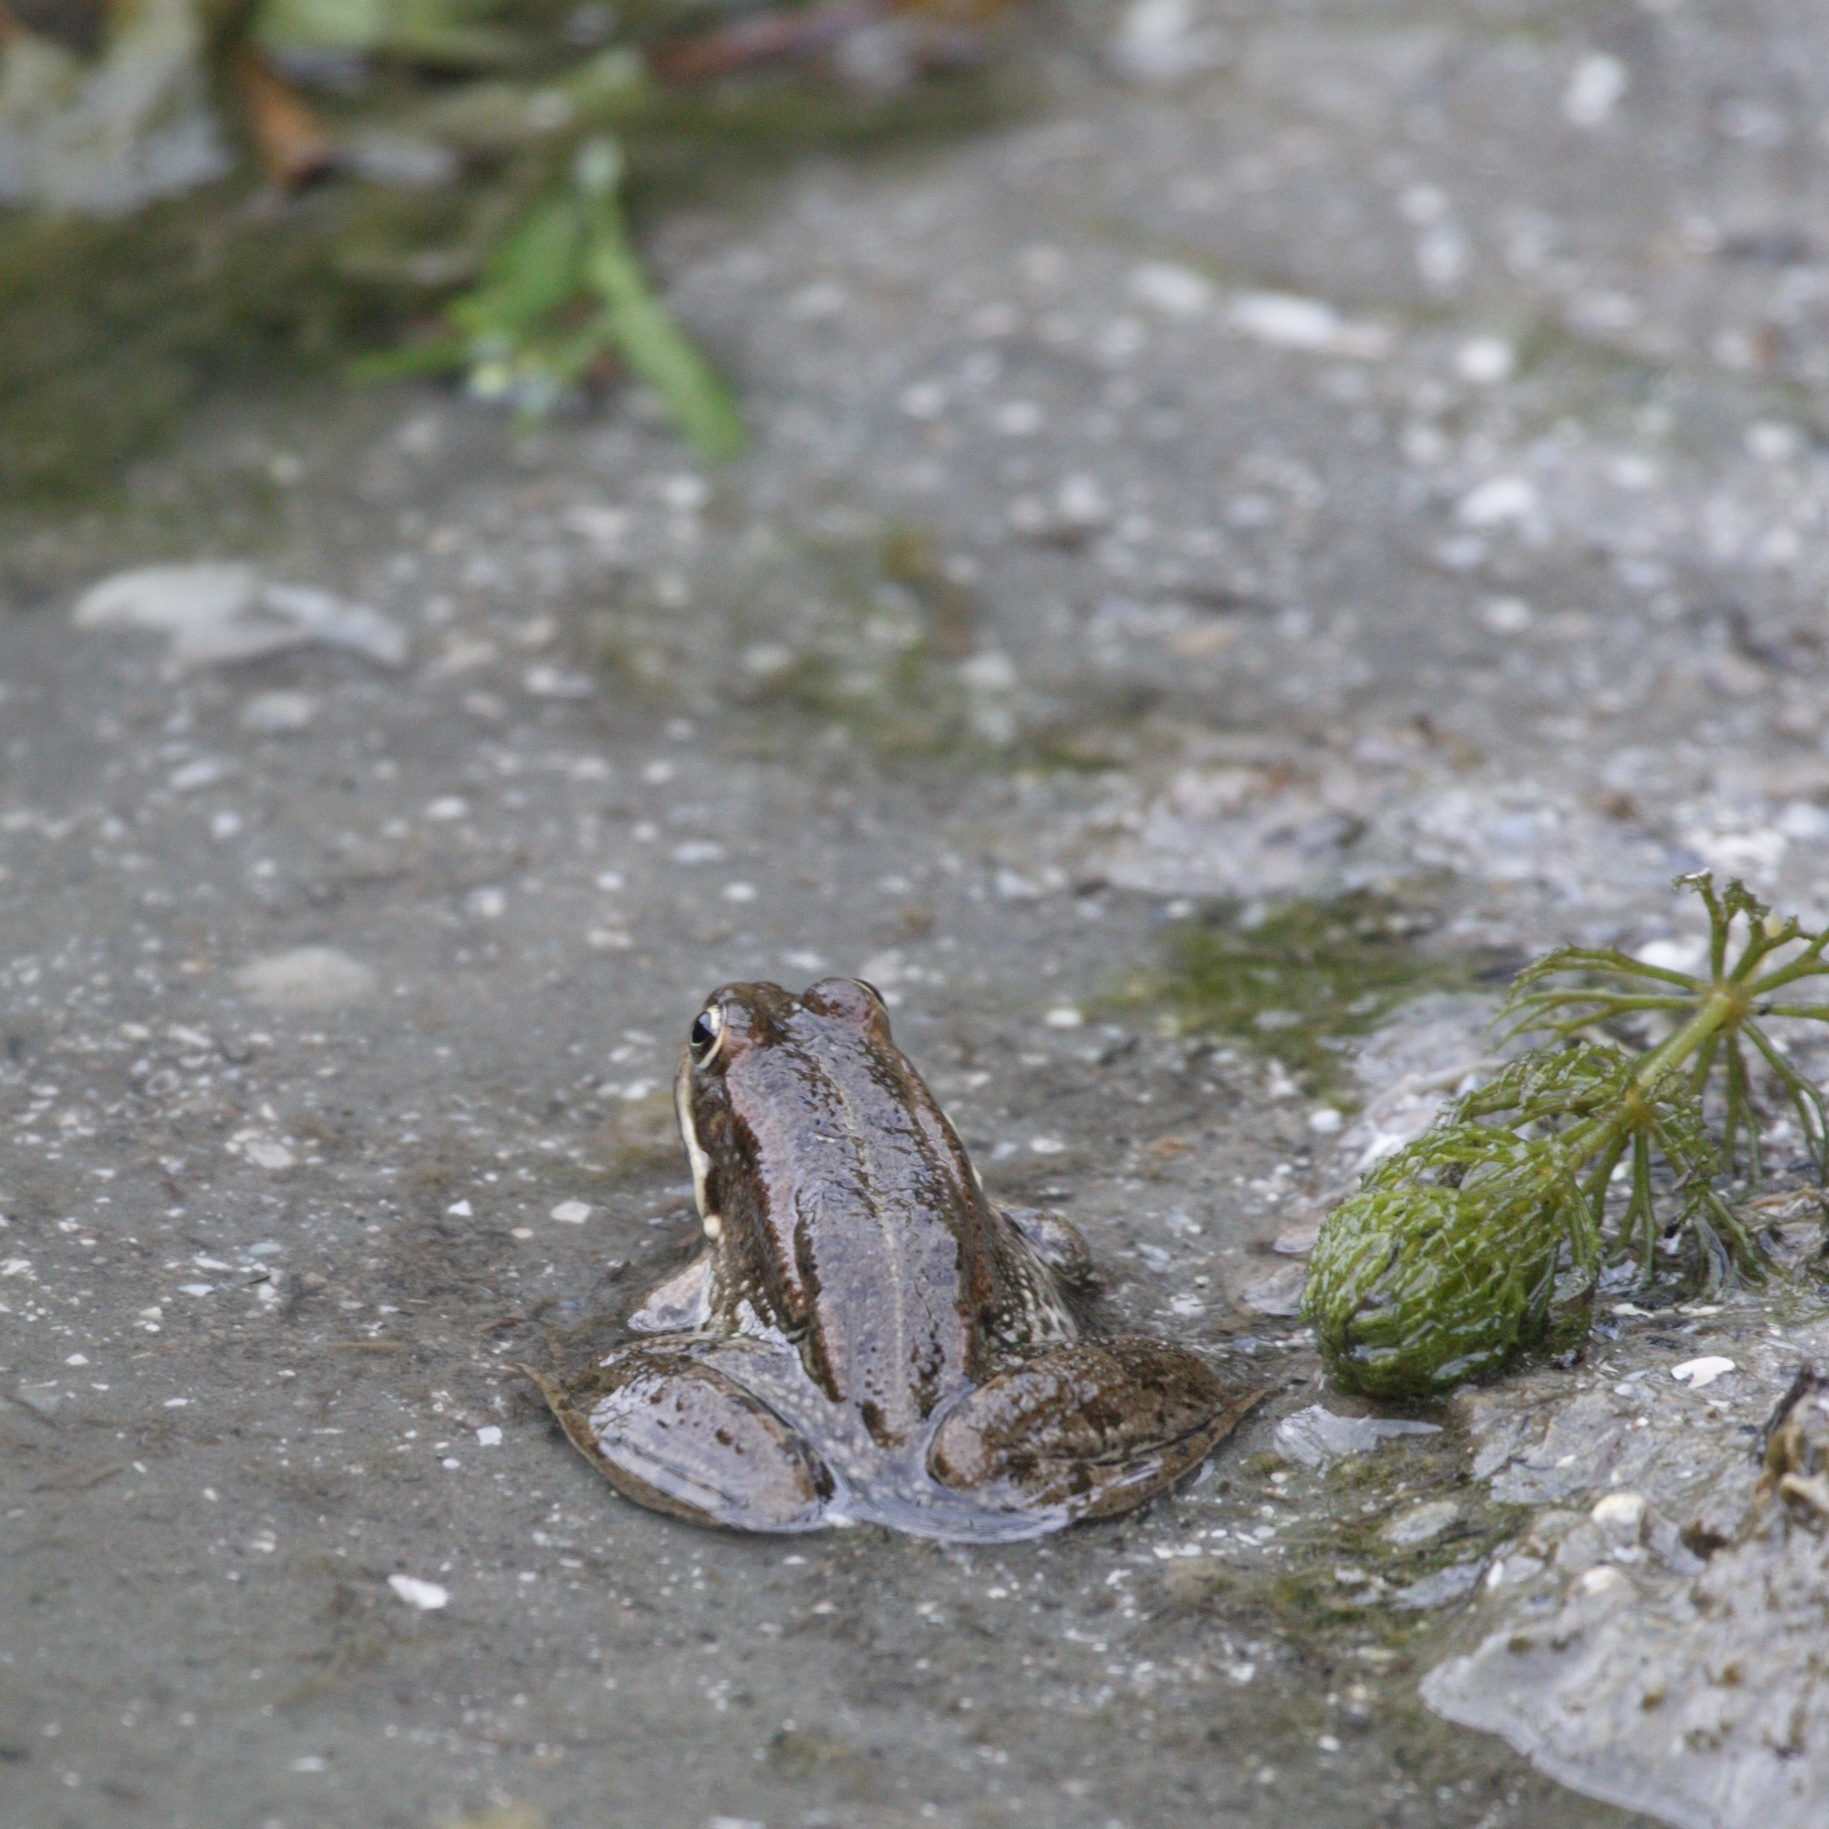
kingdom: Animalia
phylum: Chordata
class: Amphibia
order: Anura
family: Ranidae
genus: Pelophylax
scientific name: Pelophylax ridibundus
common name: Marsh frog
